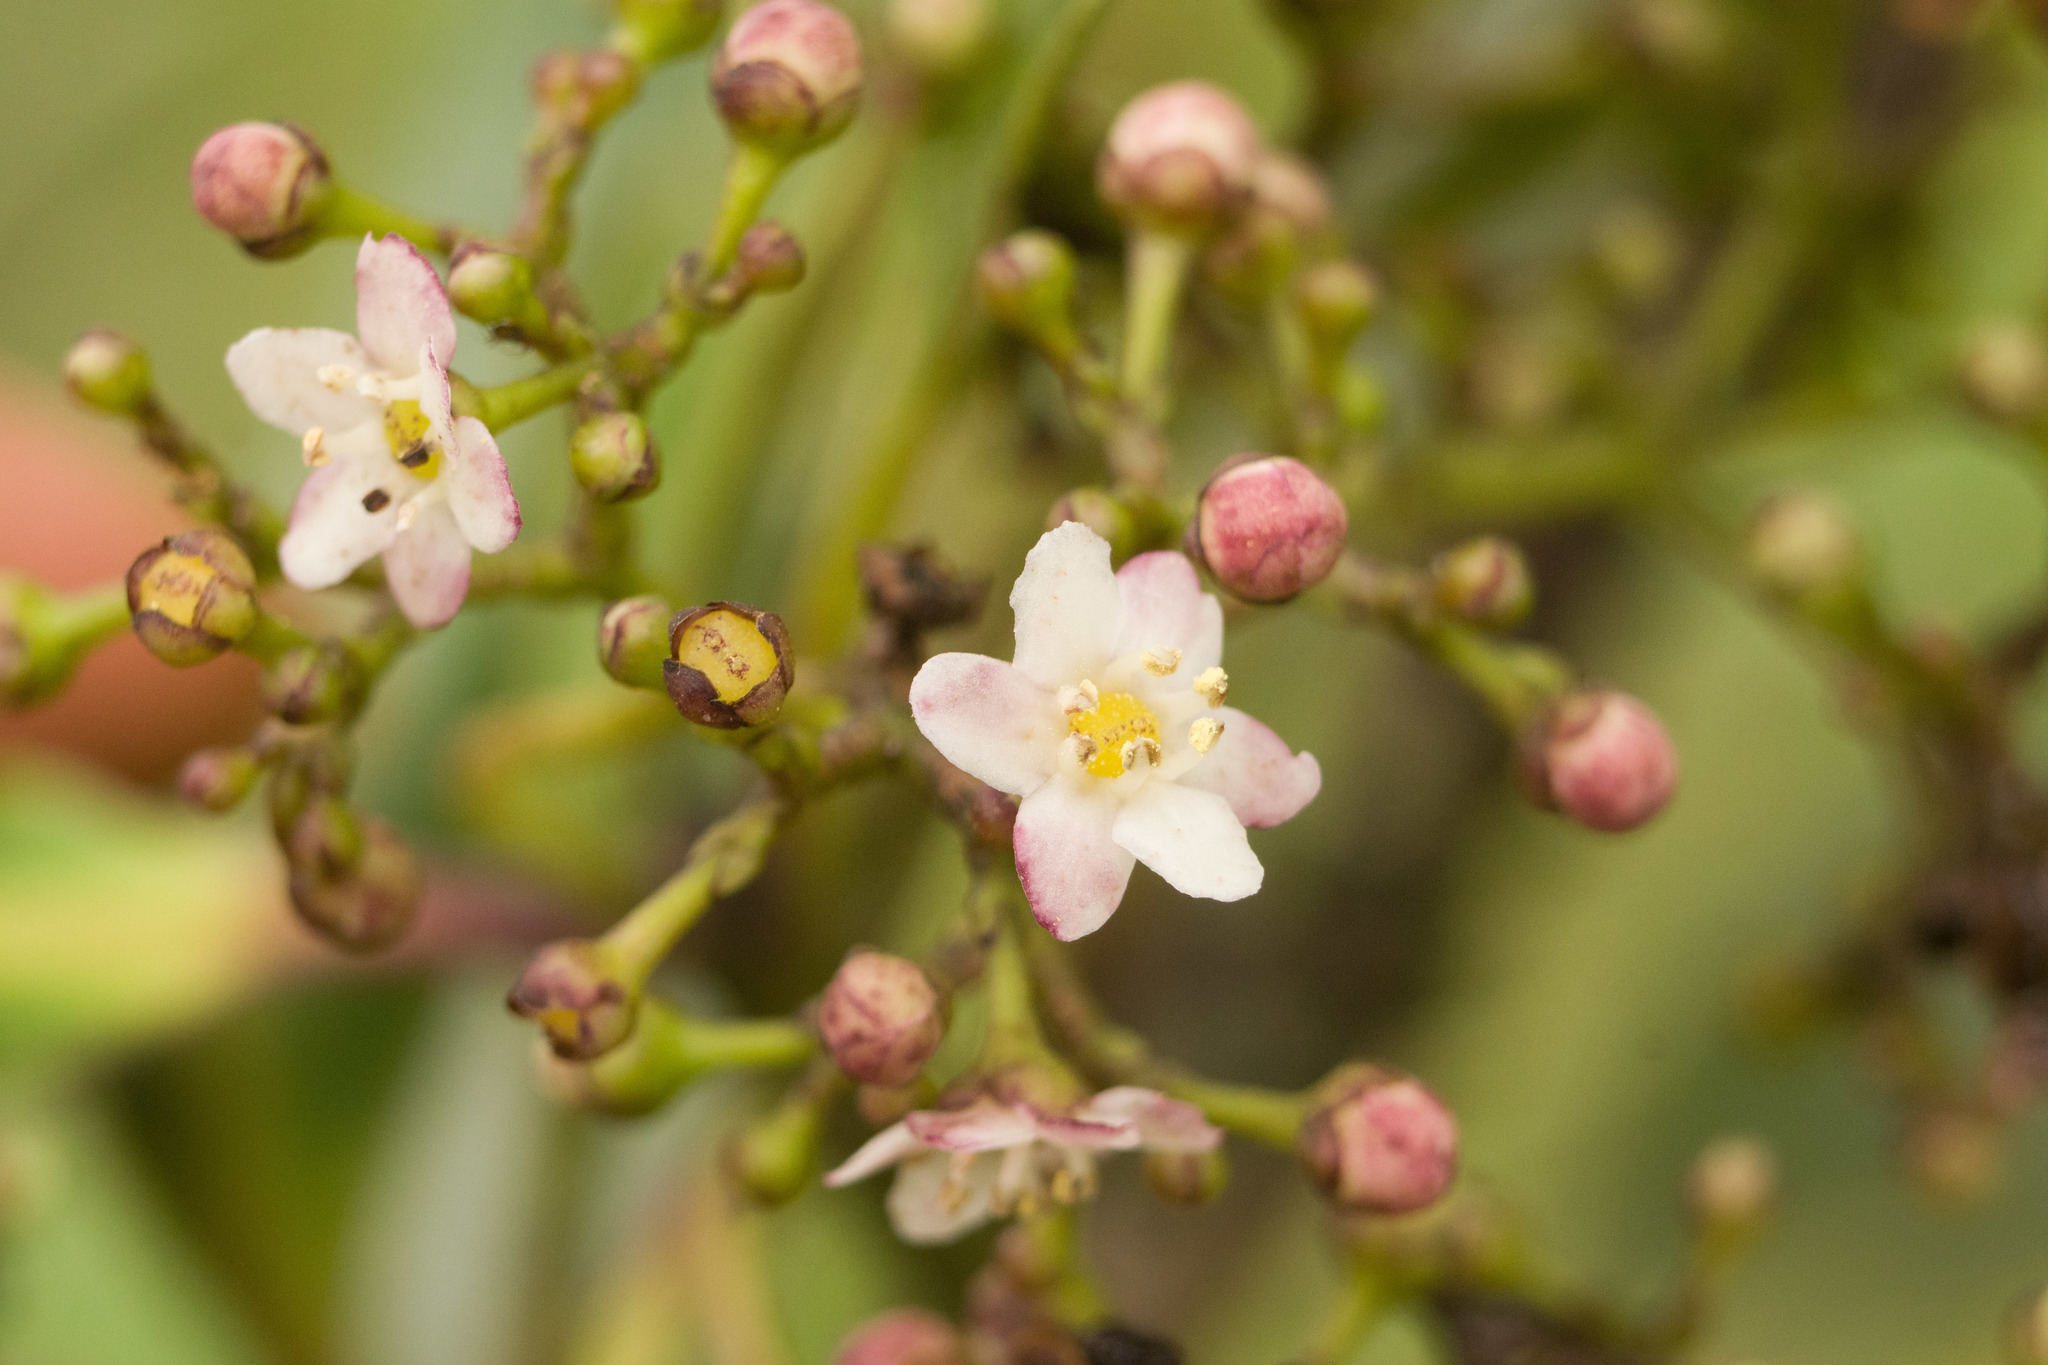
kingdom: Plantae
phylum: Tracheophyta
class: Magnoliopsida
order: Aquifoliales
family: Aquifoliaceae
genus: Ilex
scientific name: Ilex anomala
